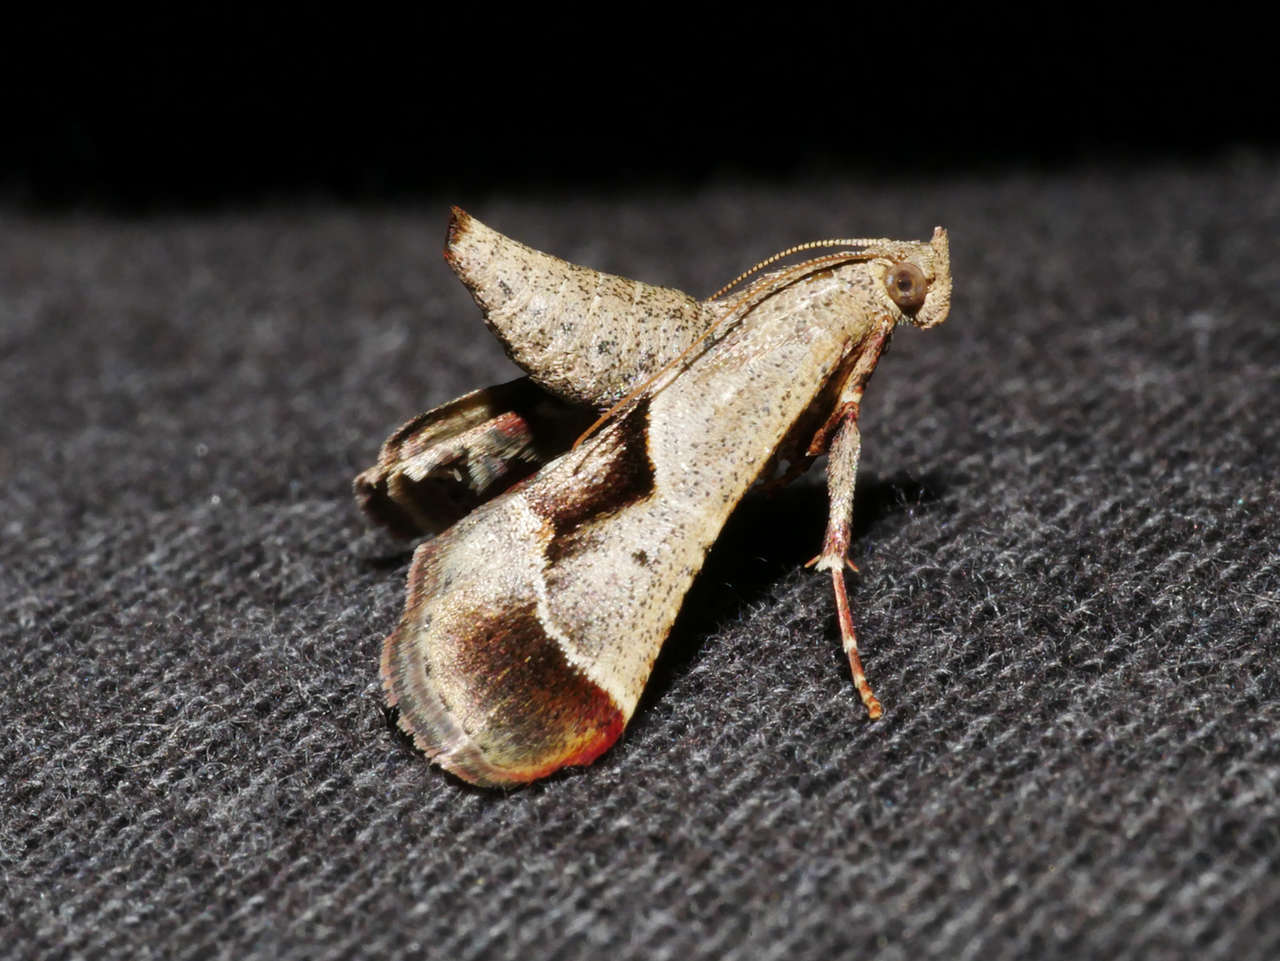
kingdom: Animalia
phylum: Arthropoda
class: Insecta
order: Lepidoptera
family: Pyralidae
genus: Gauna
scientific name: Gauna aegusalis
